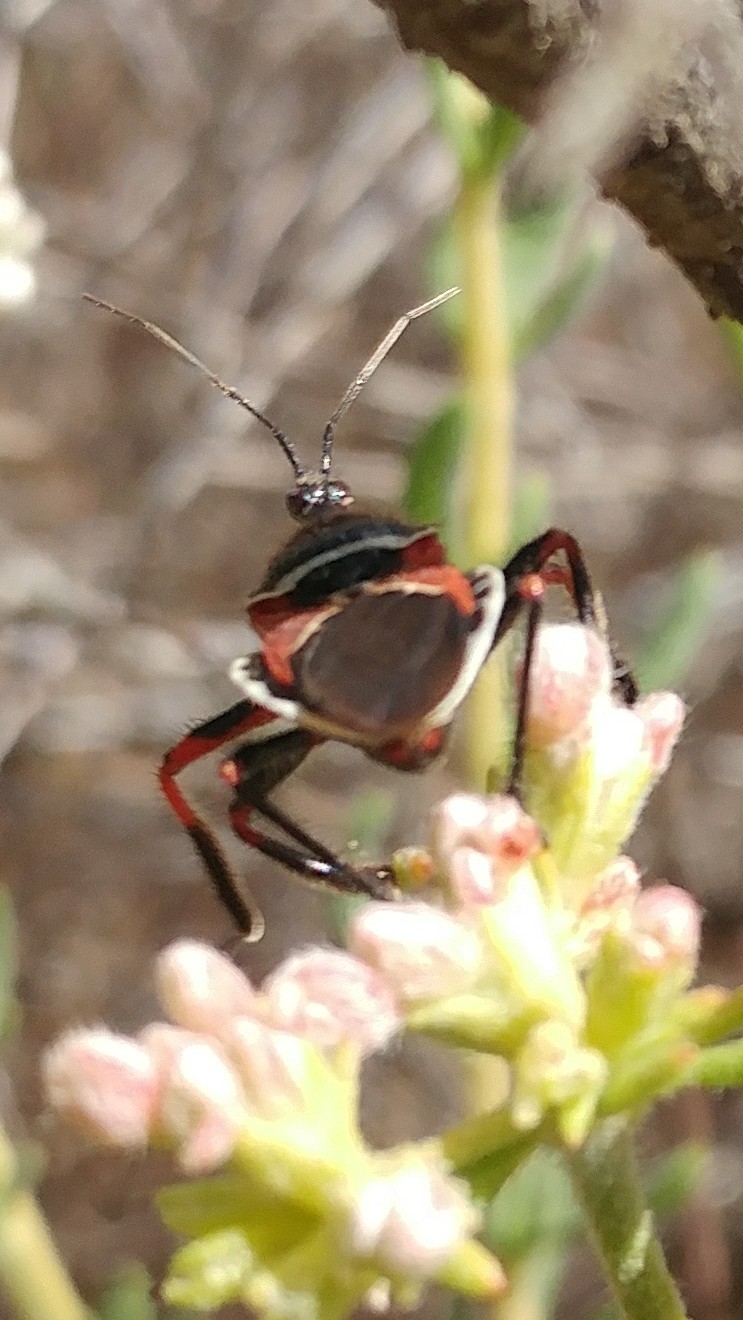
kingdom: Animalia
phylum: Arthropoda
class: Insecta
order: Hemiptera
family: Reduviidae
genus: Apiomerus
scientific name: Apiomerus californicus
